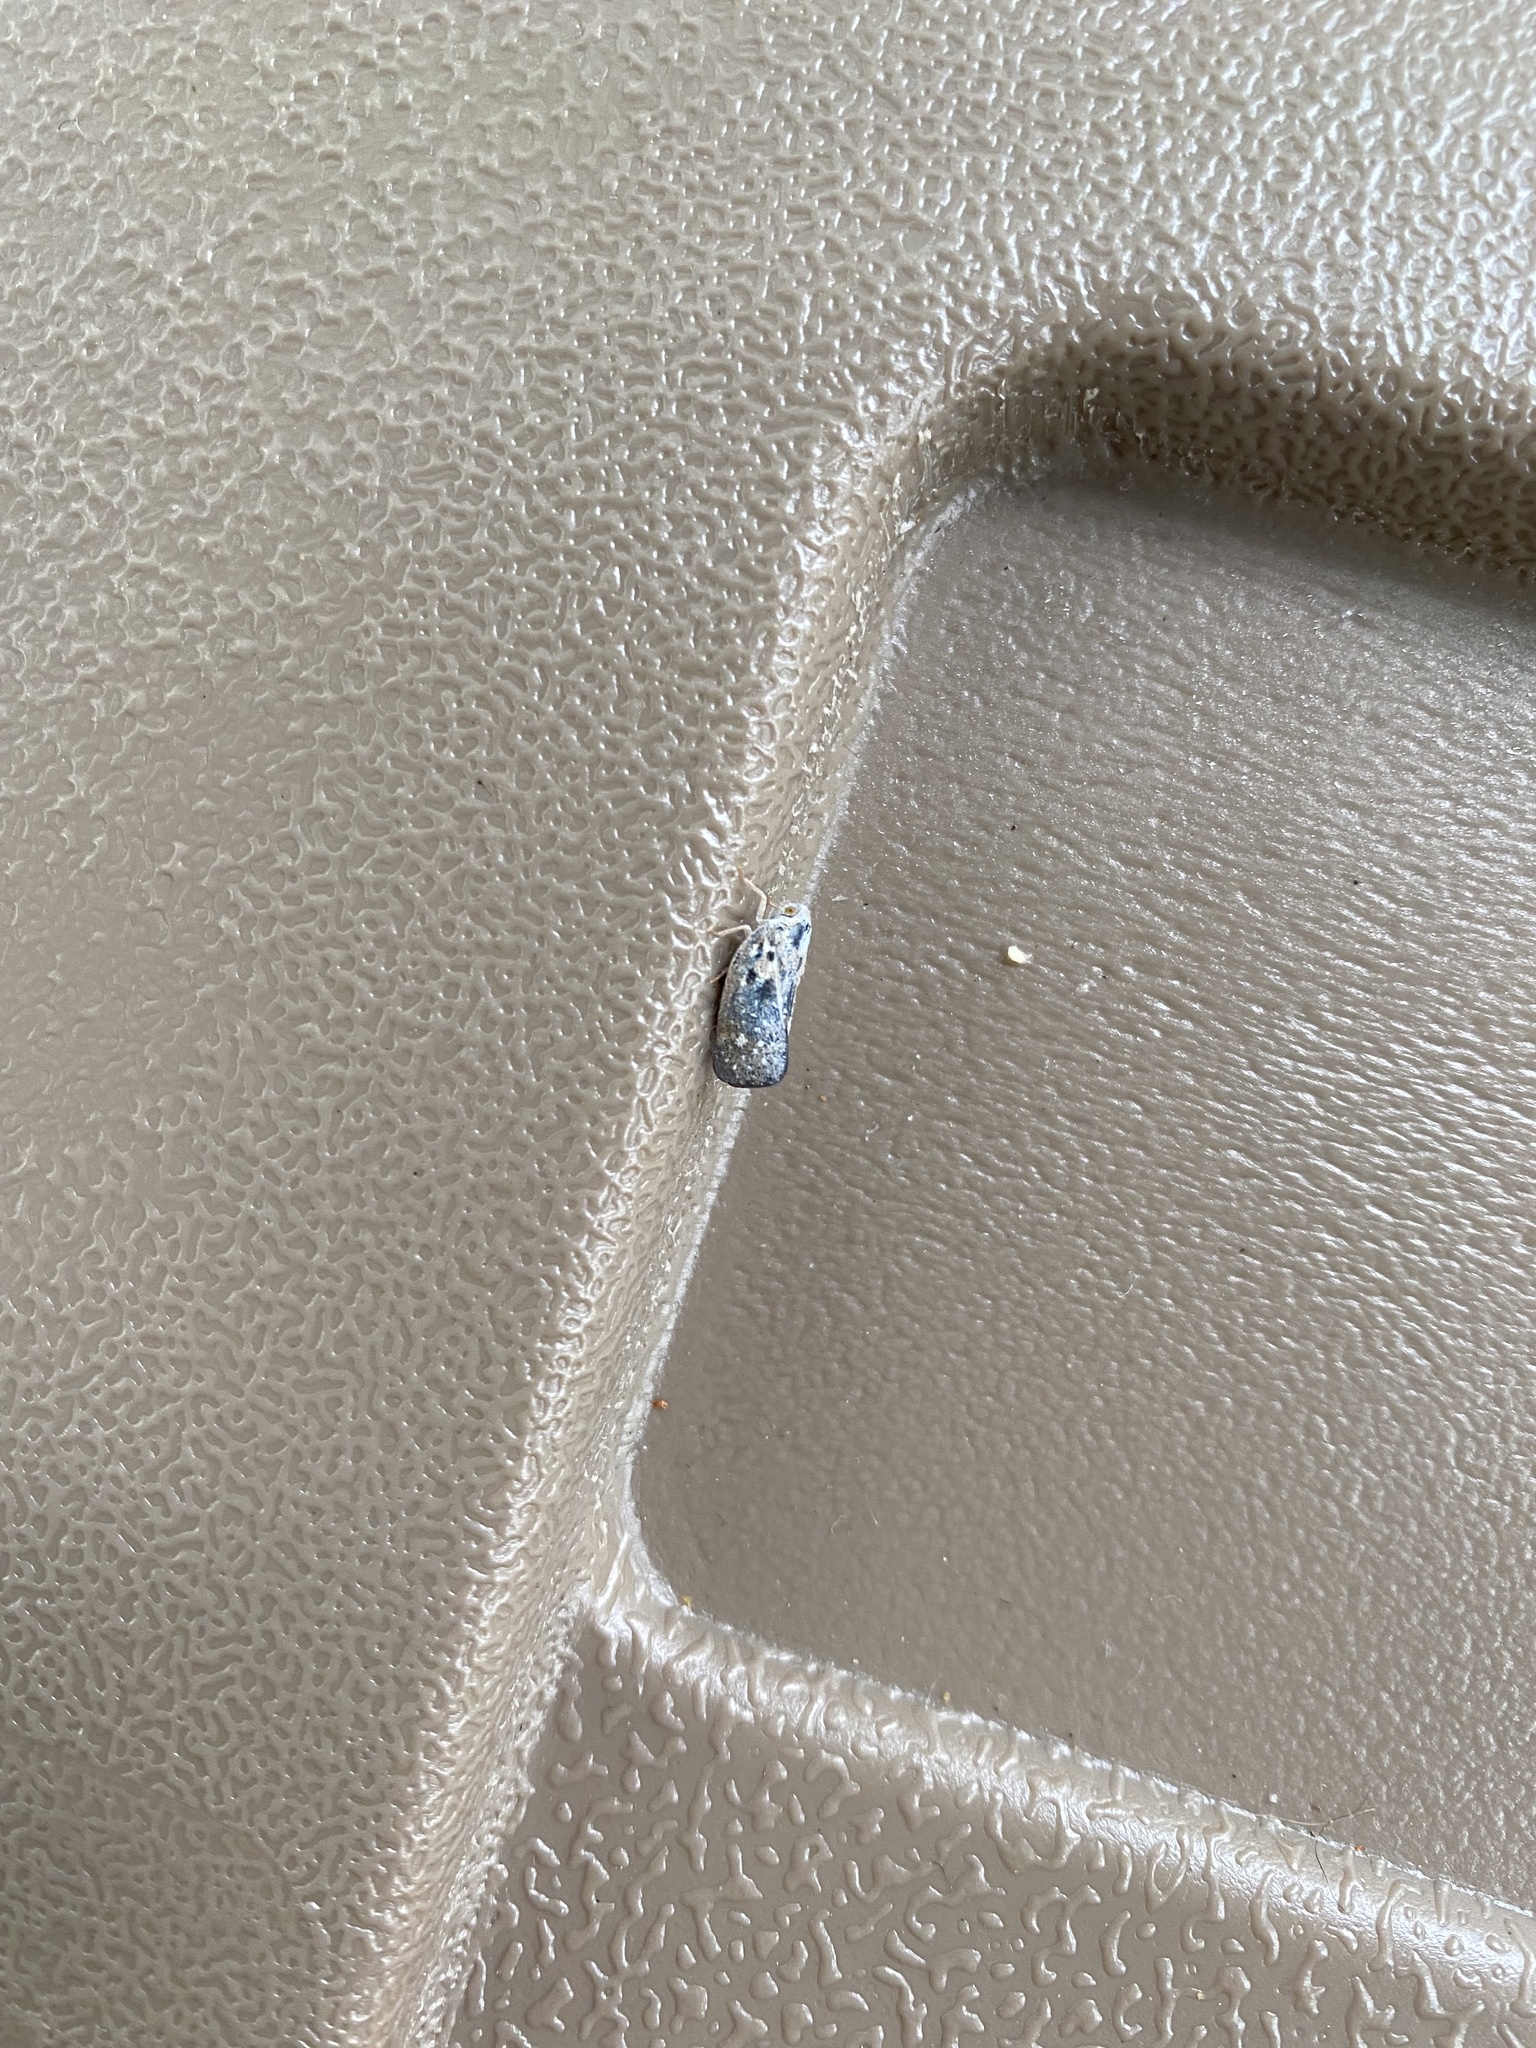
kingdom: Animalia
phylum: Arthropoda
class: Insecta
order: Hemiptera
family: Flatidae
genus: Metcalfa
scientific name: Metcalfa pruinosa
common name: Citrus flatid planthopper
